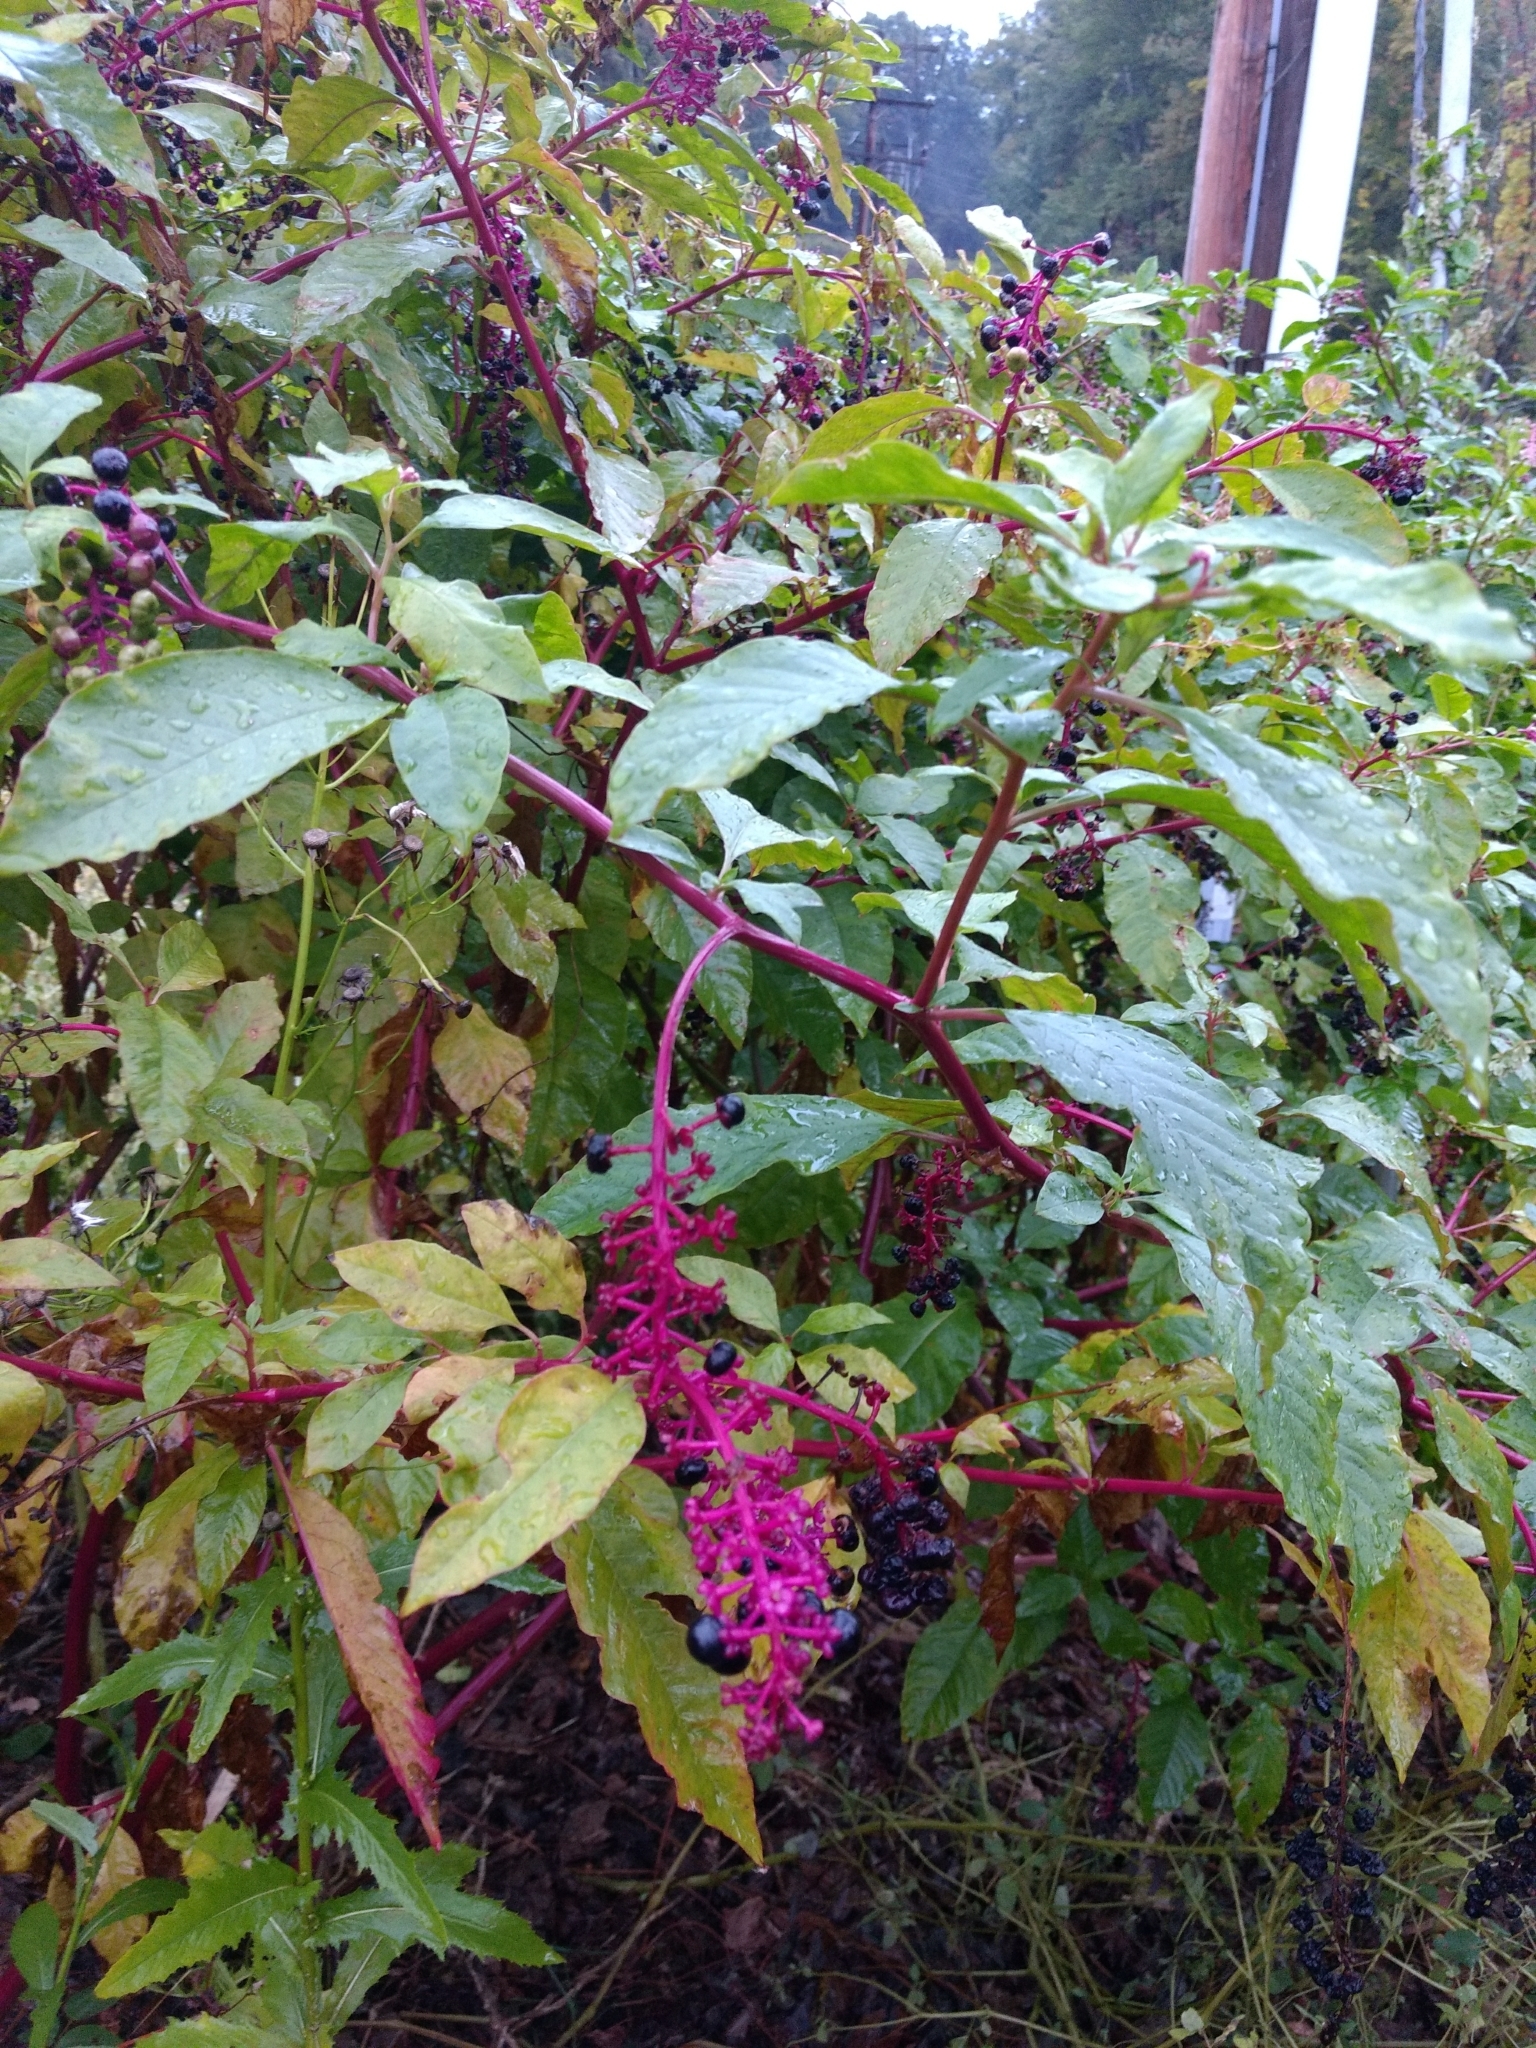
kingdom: Plantae
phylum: Tracheophyta
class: Magnoliopsida
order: Caryophyllales
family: Phytolaccaceae
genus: Phytolacca
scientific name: Phytolacca americana
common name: American pokeweed
